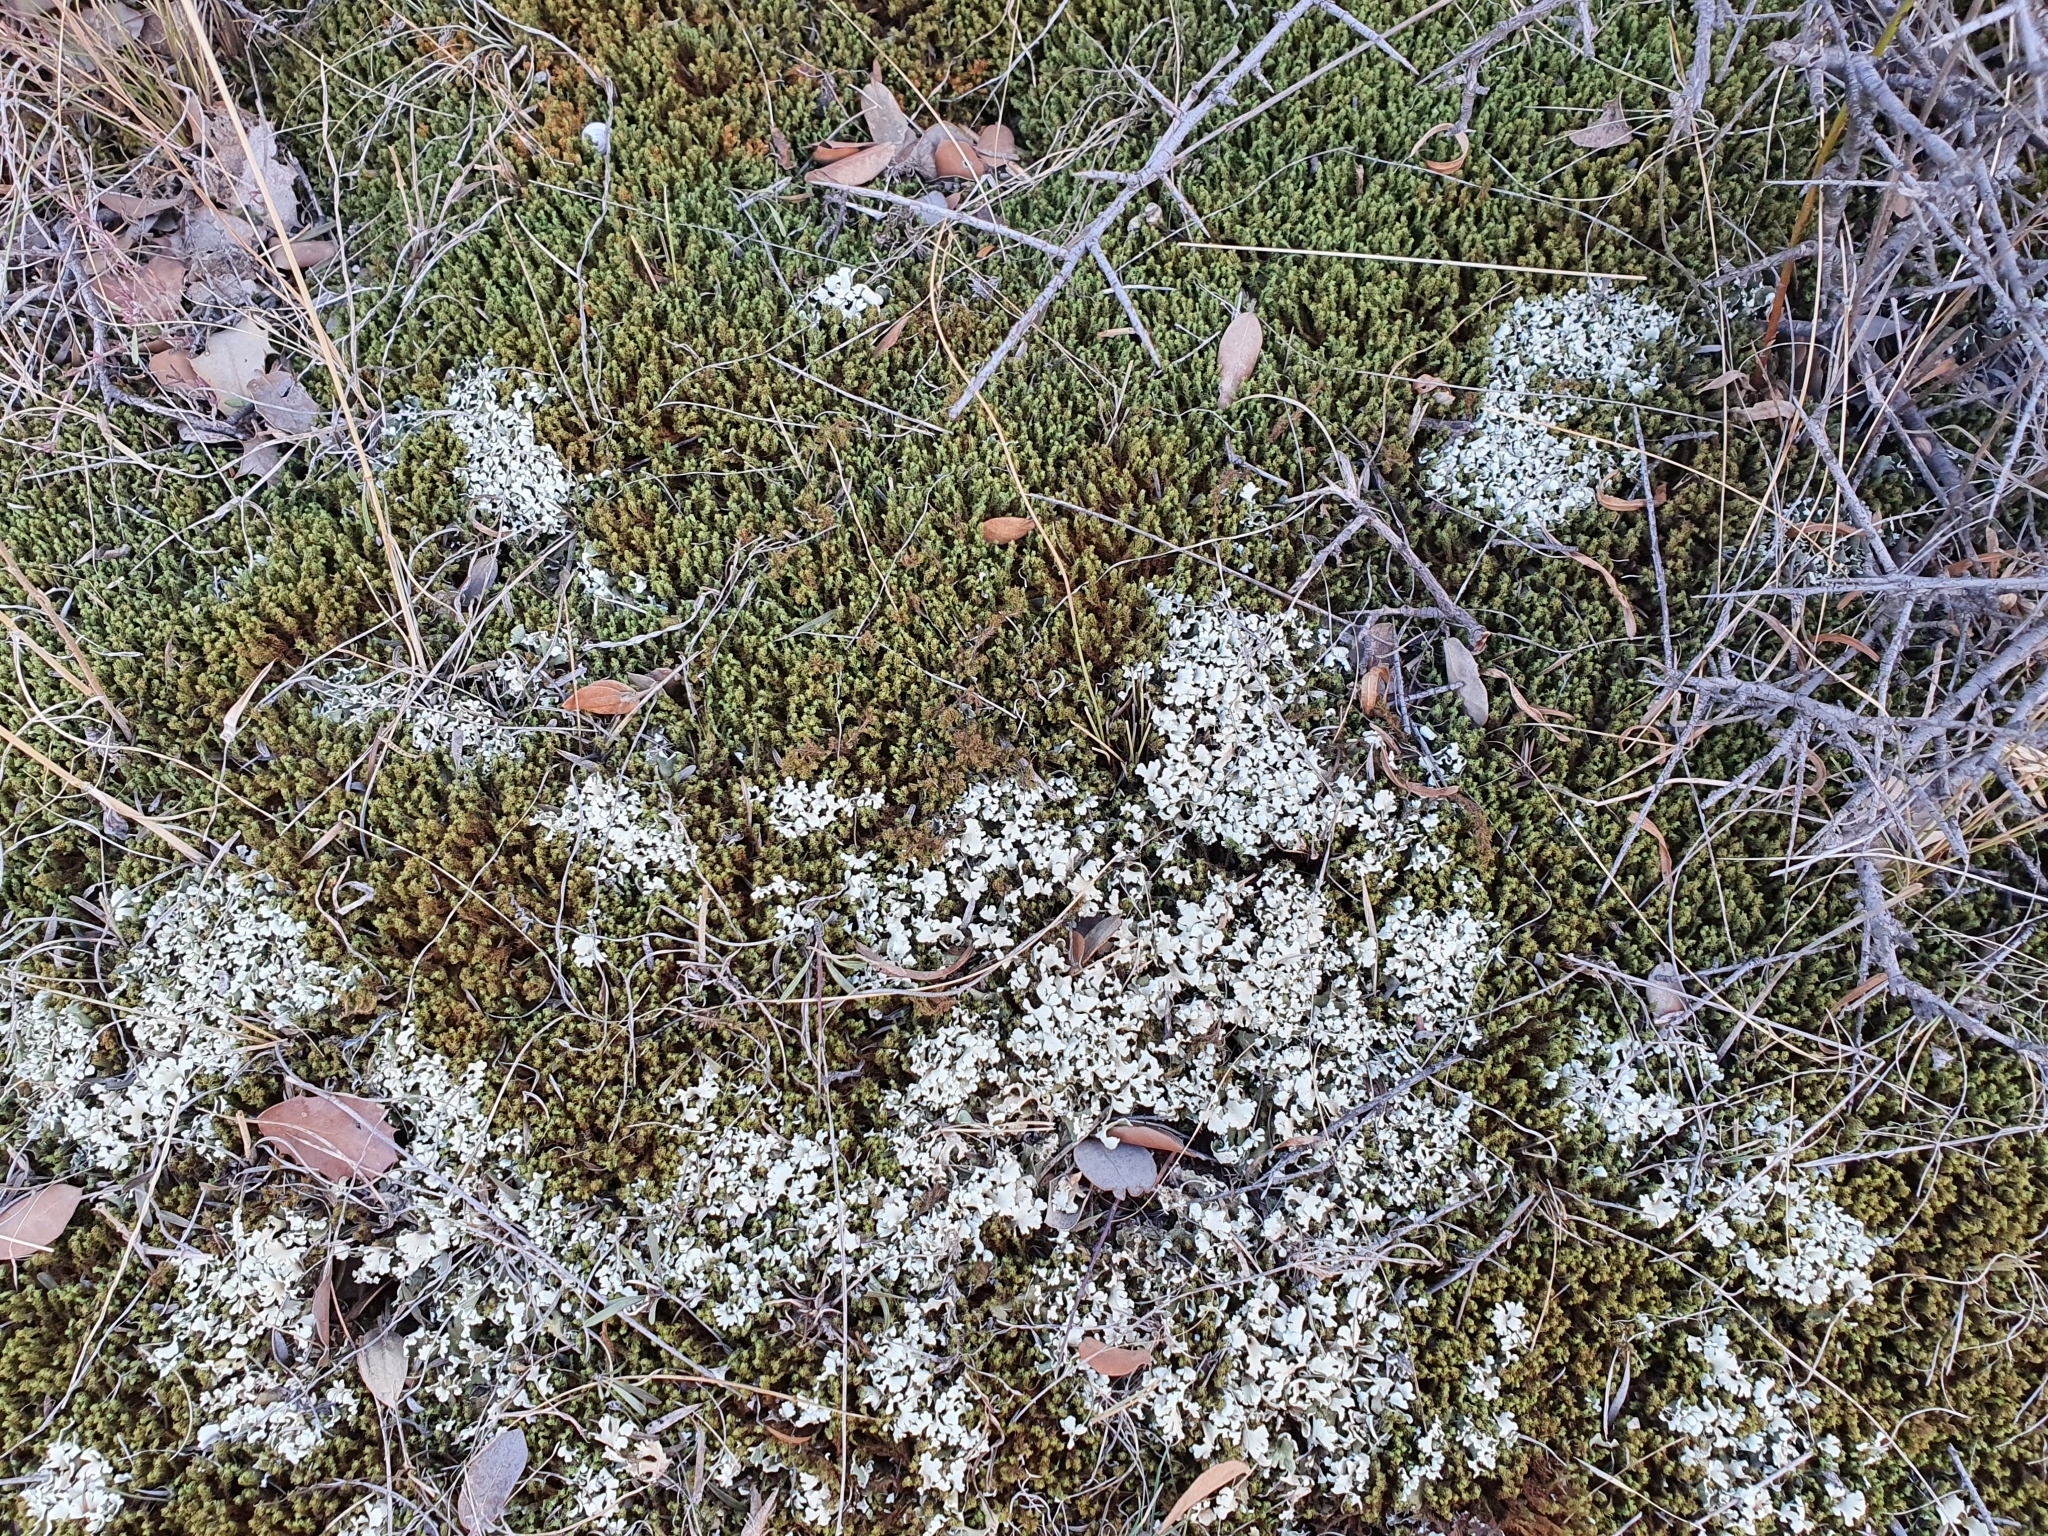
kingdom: Fungi
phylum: Ascomycota
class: Lecanoromycetes
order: Lecanorales
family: Cladoniaceae
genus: Cladonia
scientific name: Cladonia foliacea
